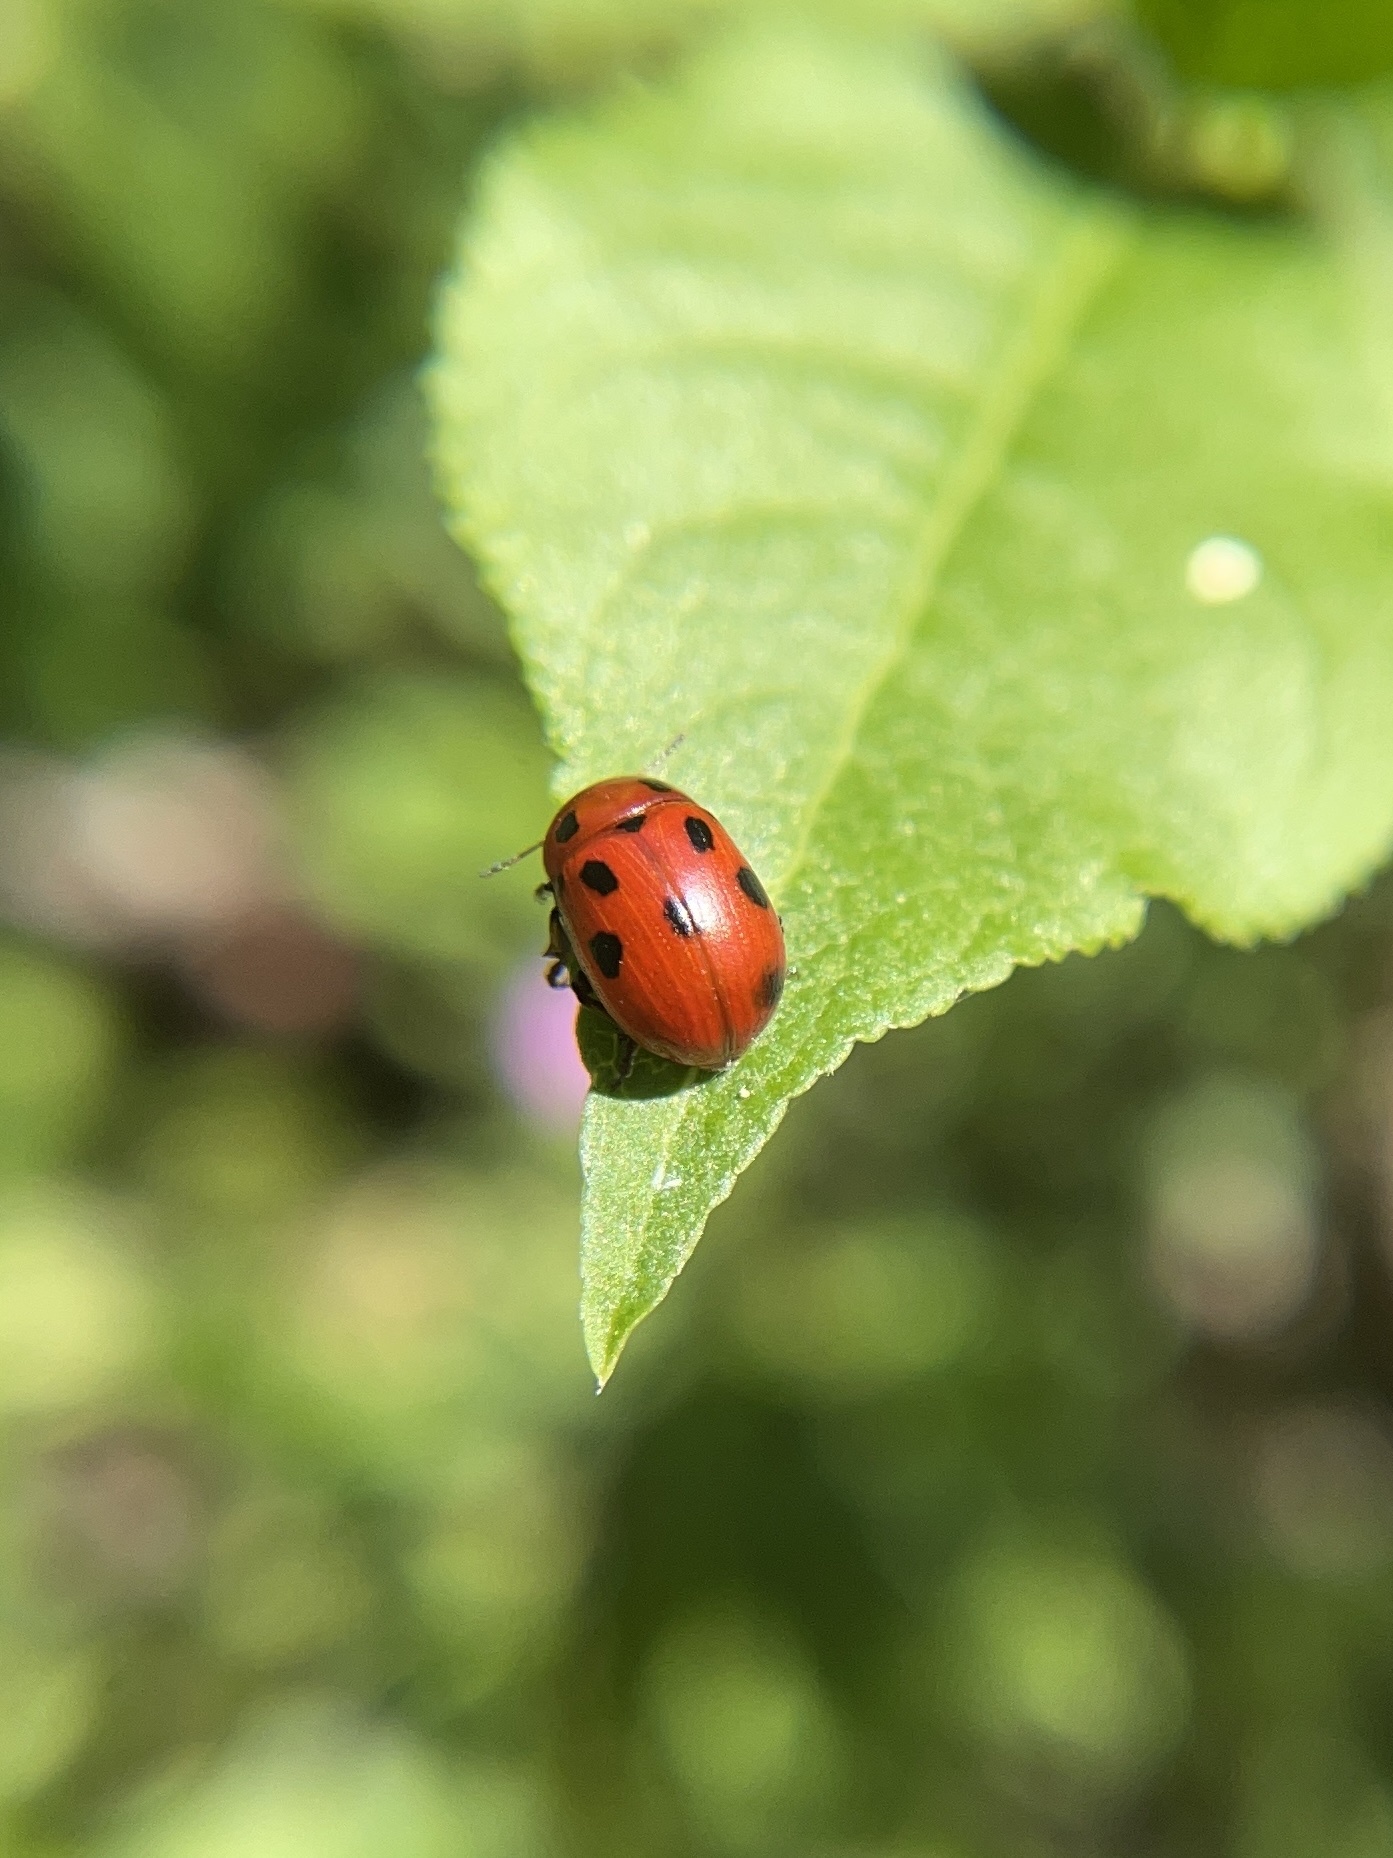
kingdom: Animalia
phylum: Arthropoda
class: Insecta
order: Coleoptera
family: Chrysomelidae
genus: Gonioctena
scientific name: Gonioctena fornicata
